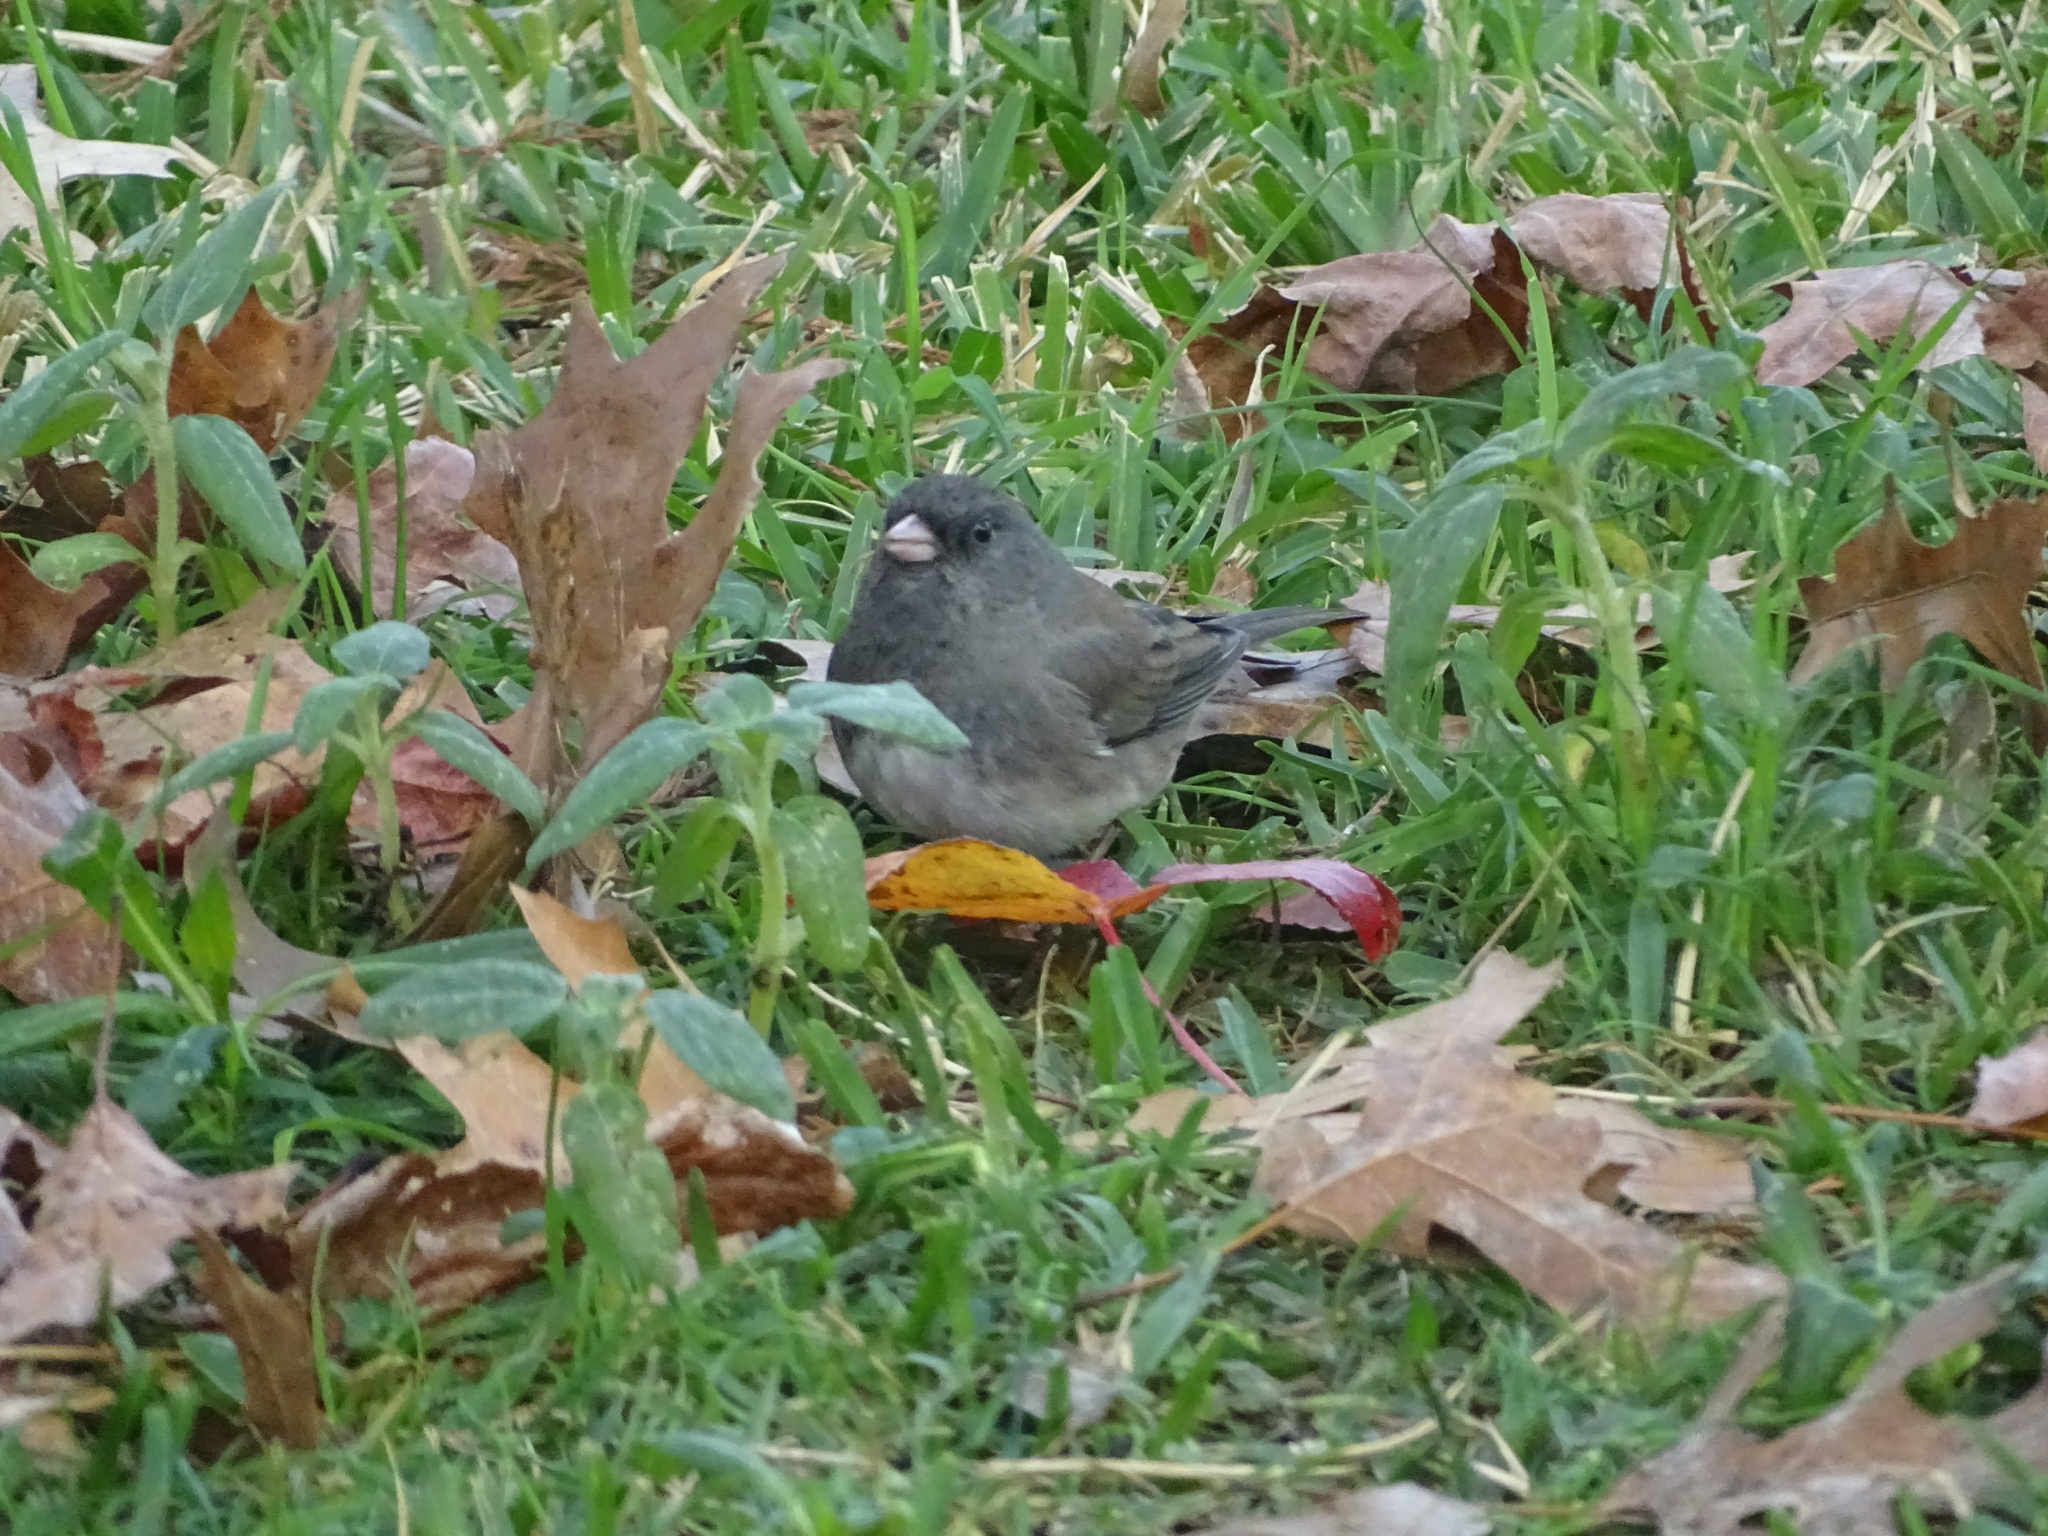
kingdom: Animalia
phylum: Chordata
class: Aves
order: Passeriformes
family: Passerellidae
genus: Junco
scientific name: Junco hyemalis
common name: Dark-eyed junco
